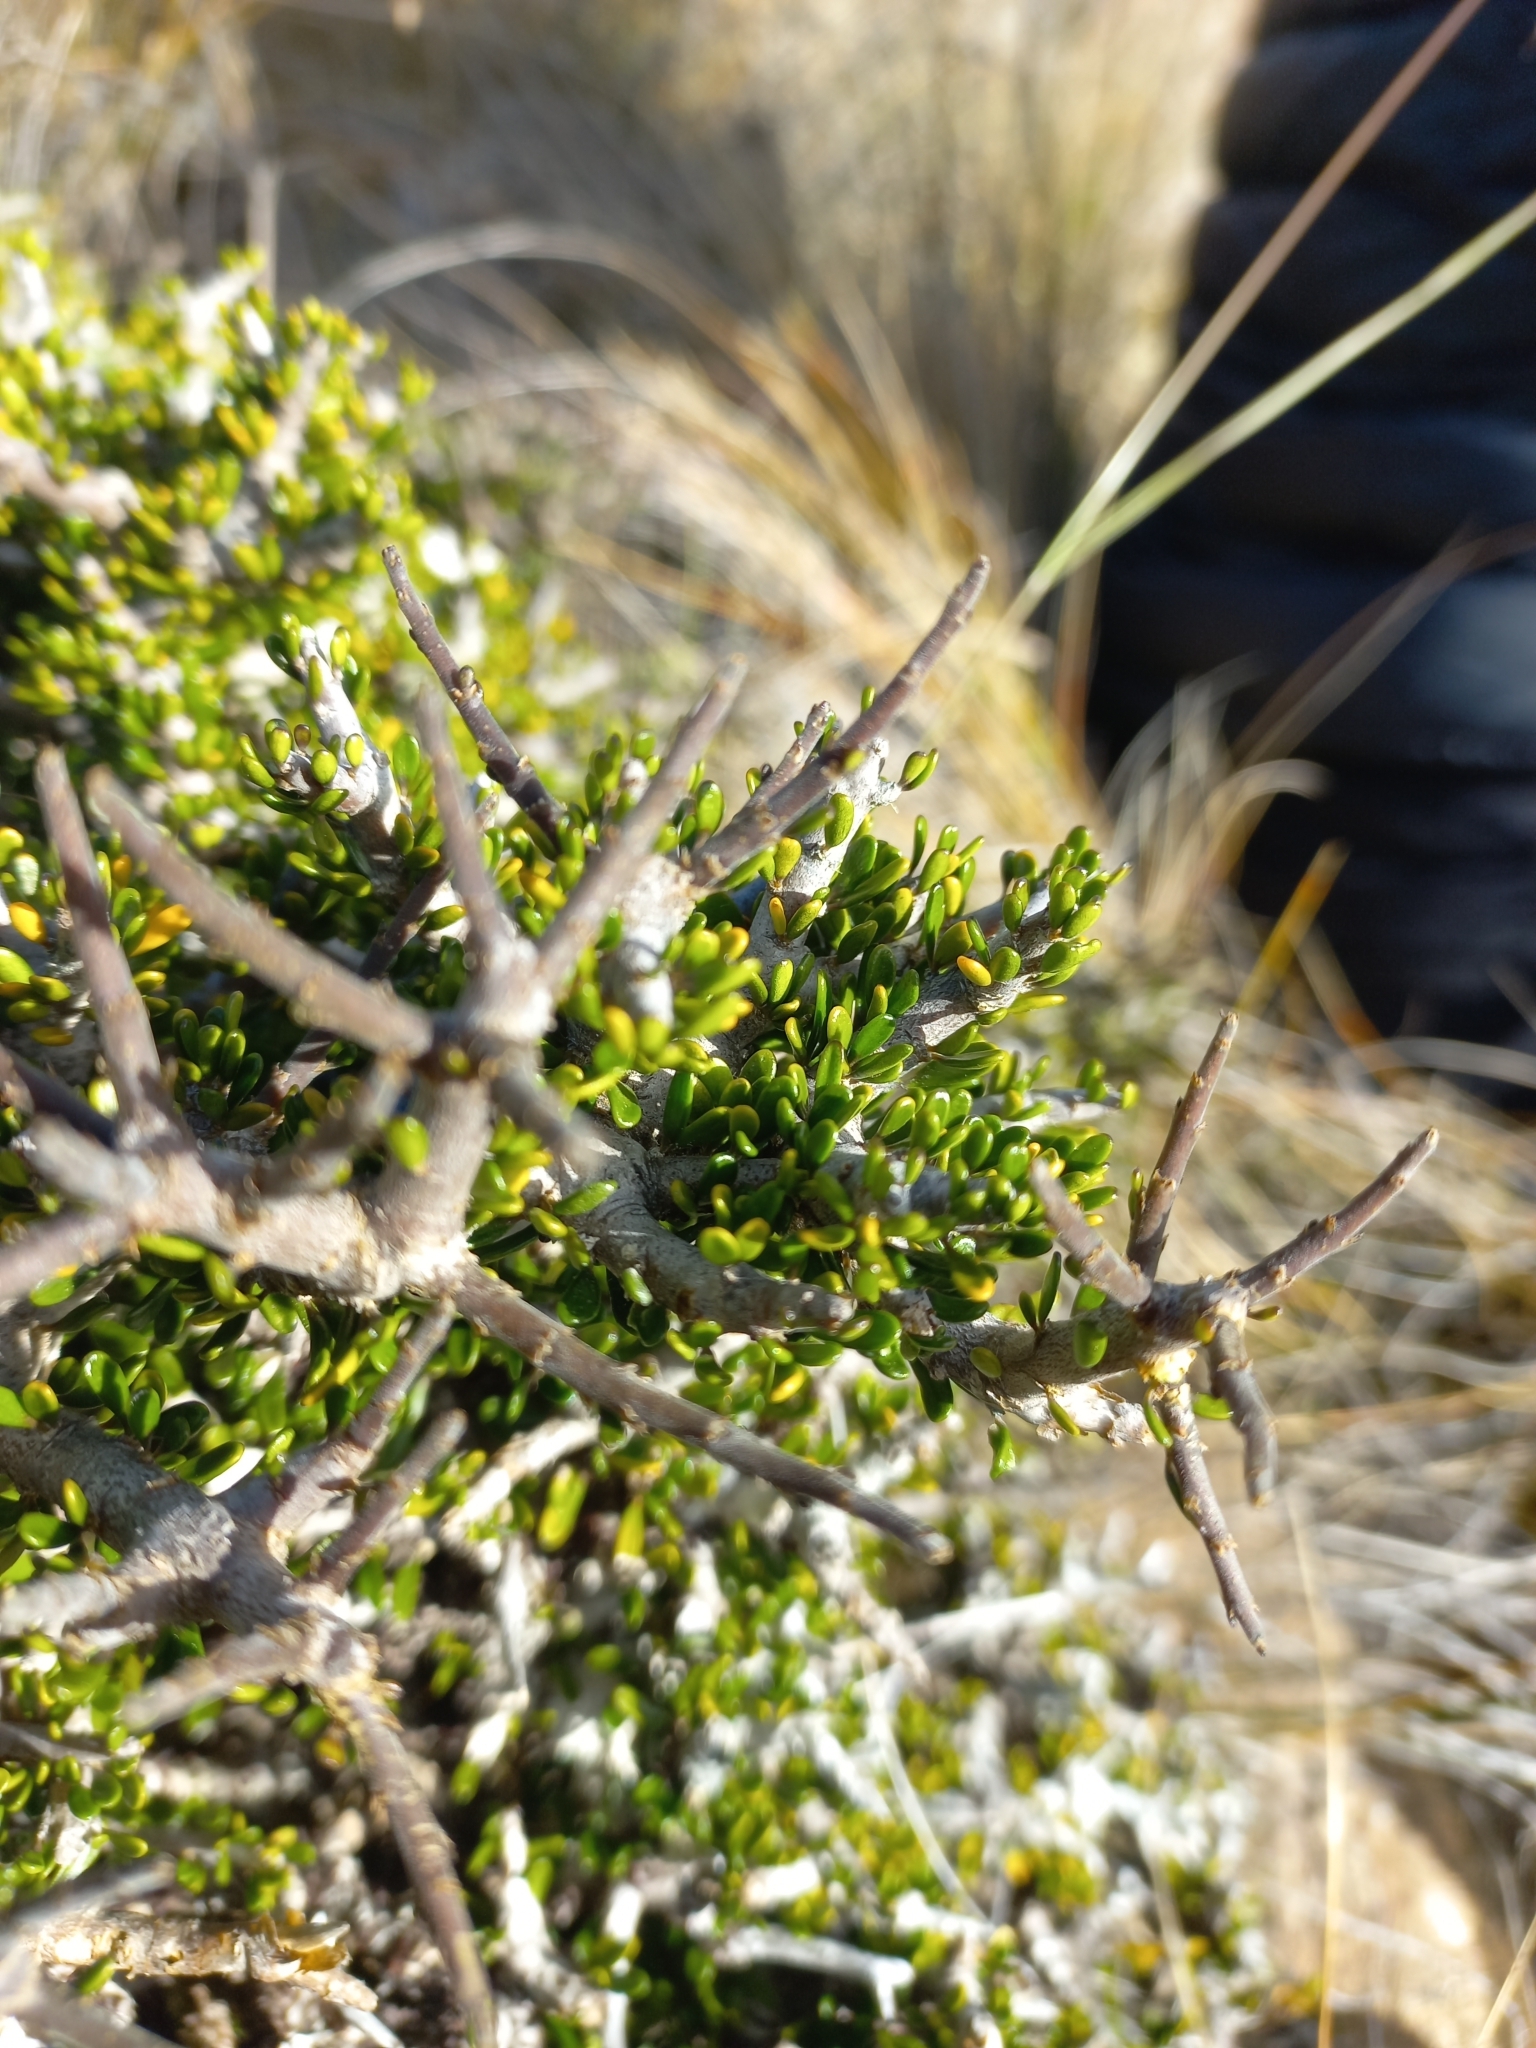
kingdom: Plantae
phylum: Tracheophyta
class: Magnoliopsida
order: Malpighiales
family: Violaceae
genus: Melicytus
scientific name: Melicytus alpinus
